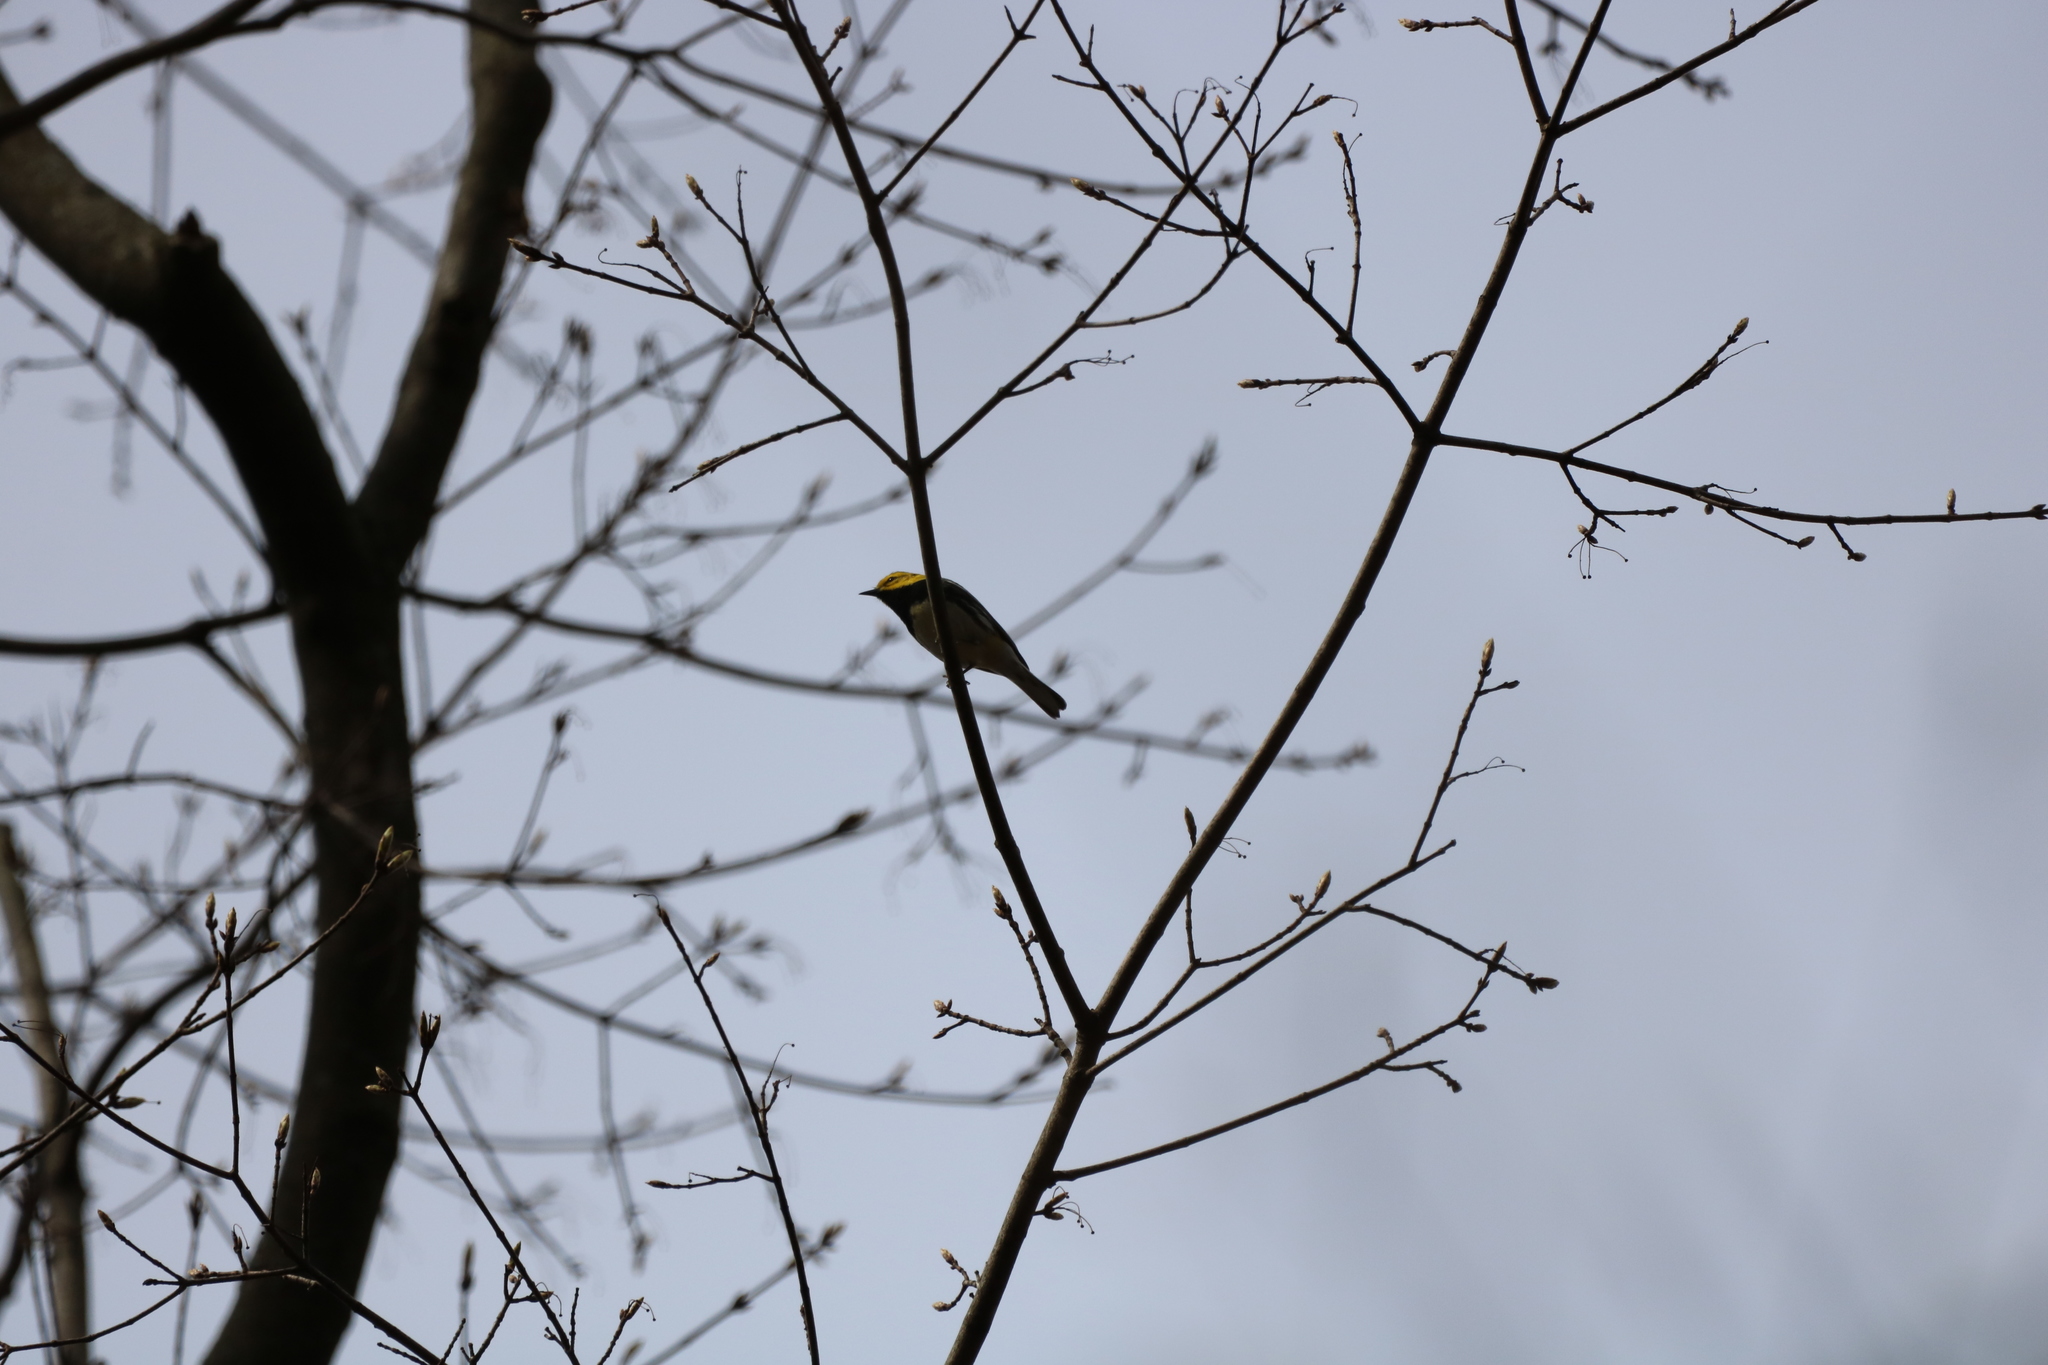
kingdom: Animalia
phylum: Chordata
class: Aves
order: Passeriformes
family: Parulidae
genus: Setophaga
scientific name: Setophaga virens
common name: Black-throated green warbler
